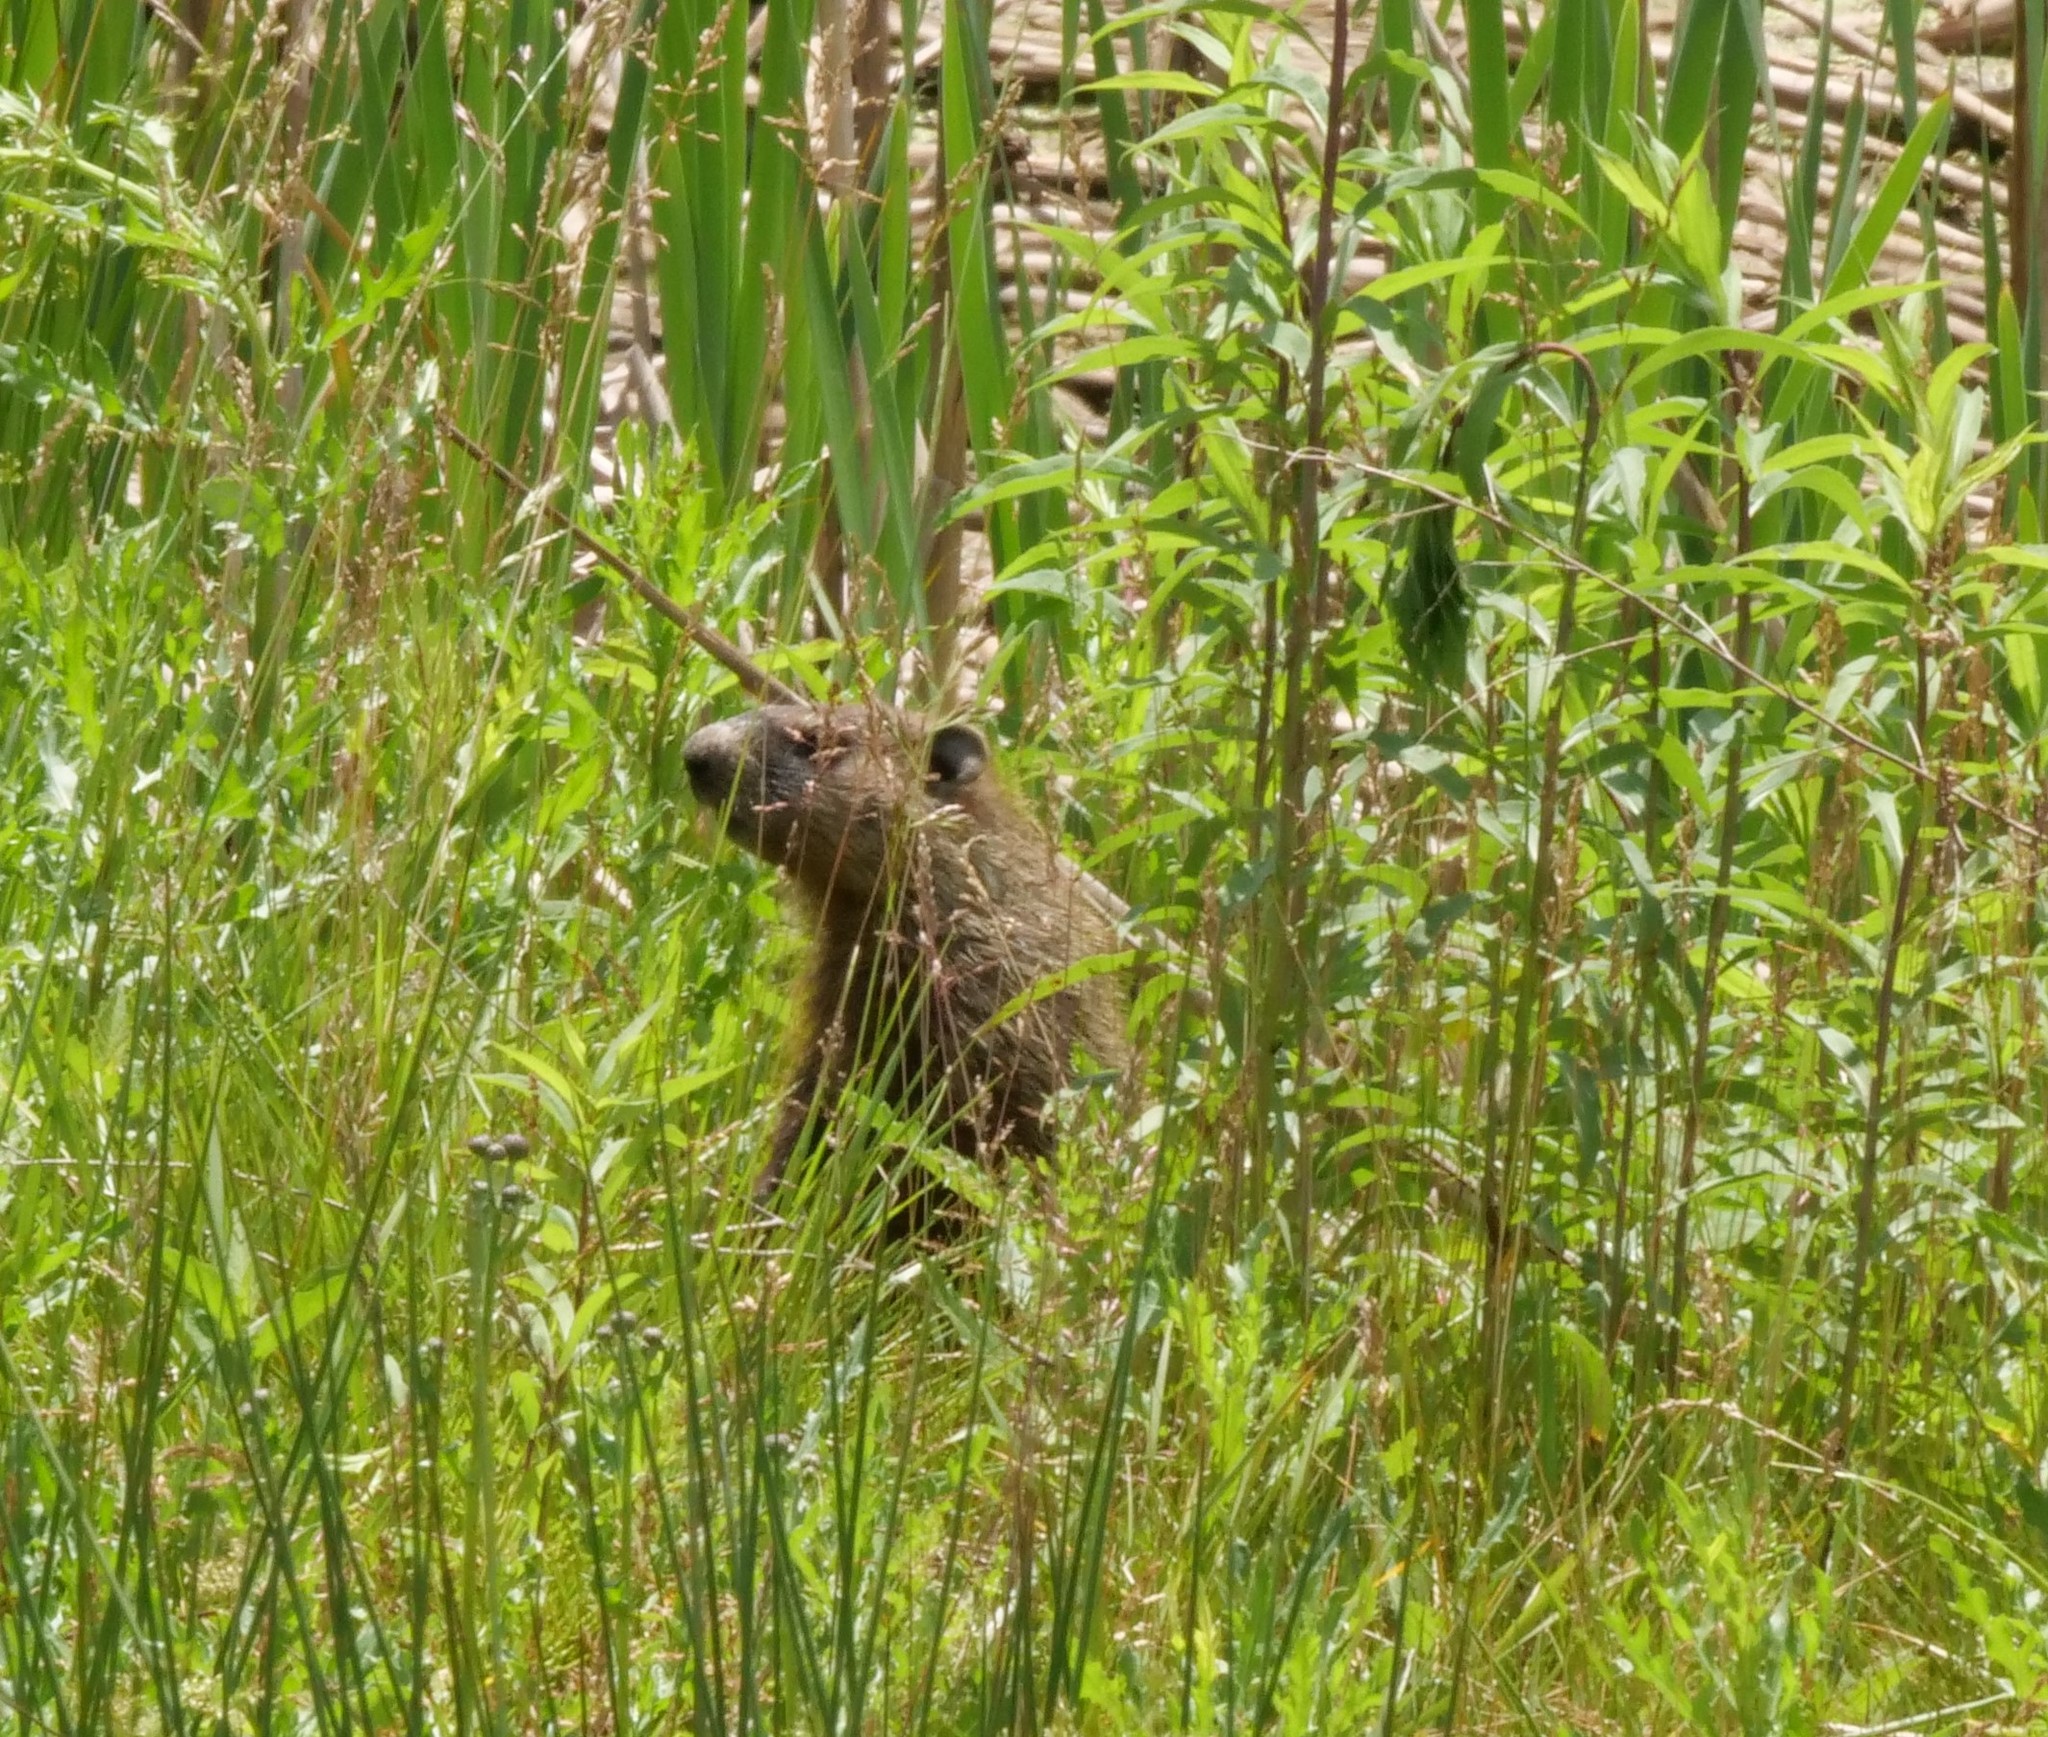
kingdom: Animalia
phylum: Chordata
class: Mammalia
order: Rodentia
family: Sciuridae
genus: Marmota
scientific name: Marmota monax
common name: Groundhog
